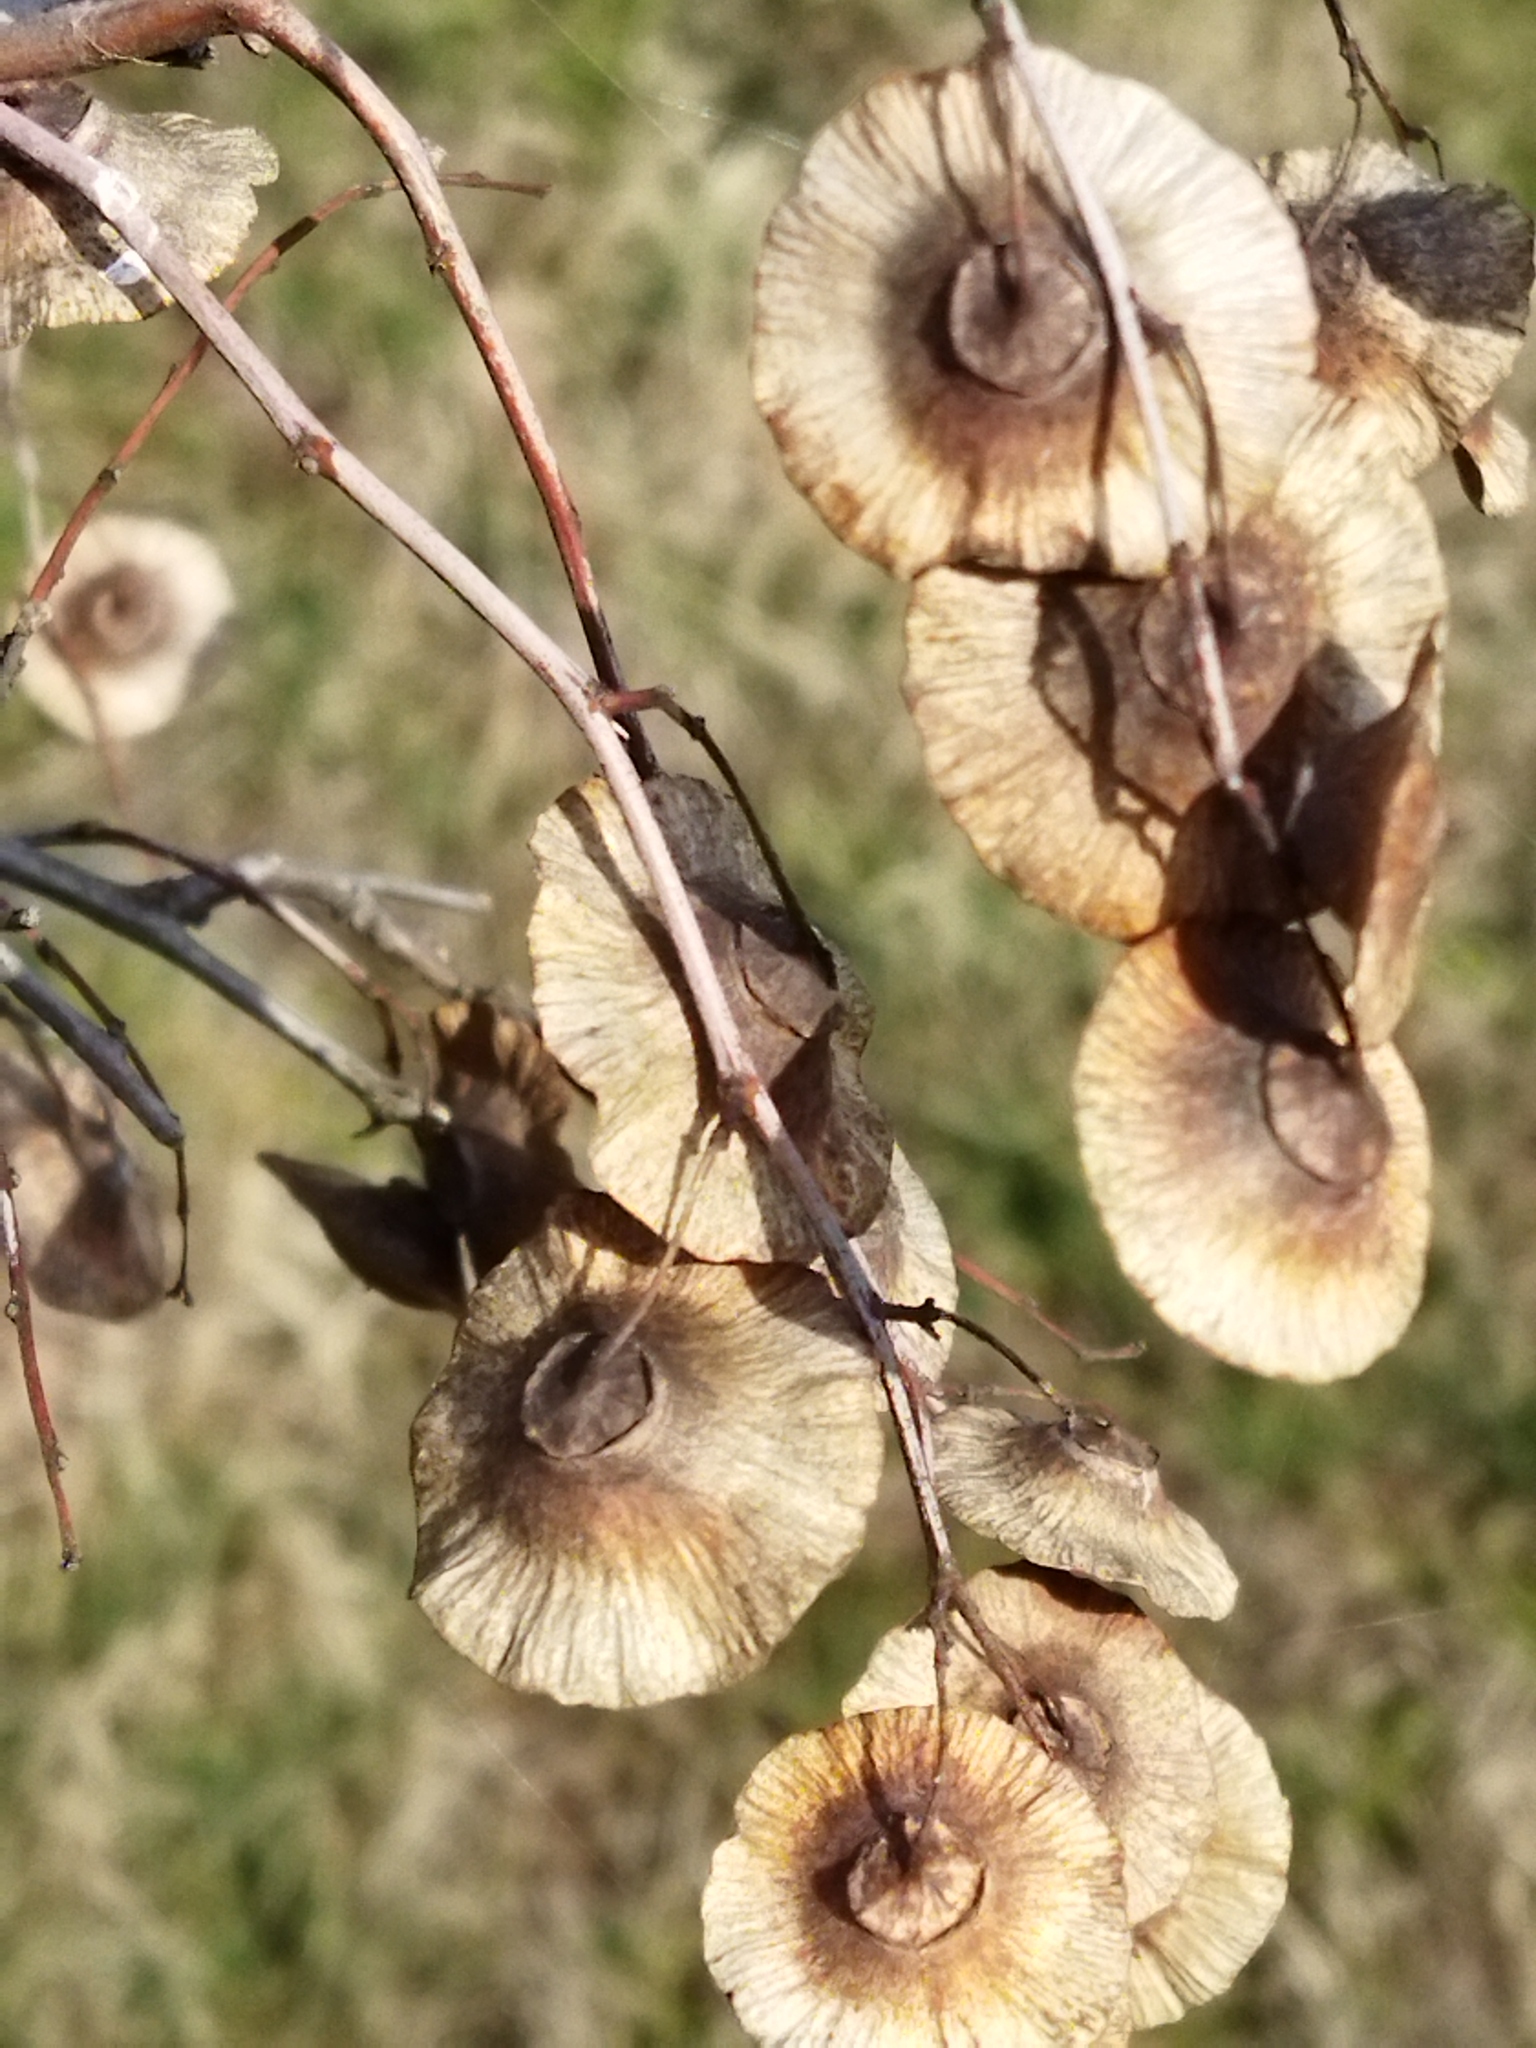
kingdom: Plantae
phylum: Tracheophyta
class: Magnoliopsida
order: Rosales
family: Rhamnaceae
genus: Paliurus
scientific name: Paliurus spina-christi
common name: Jeruselem thorn
